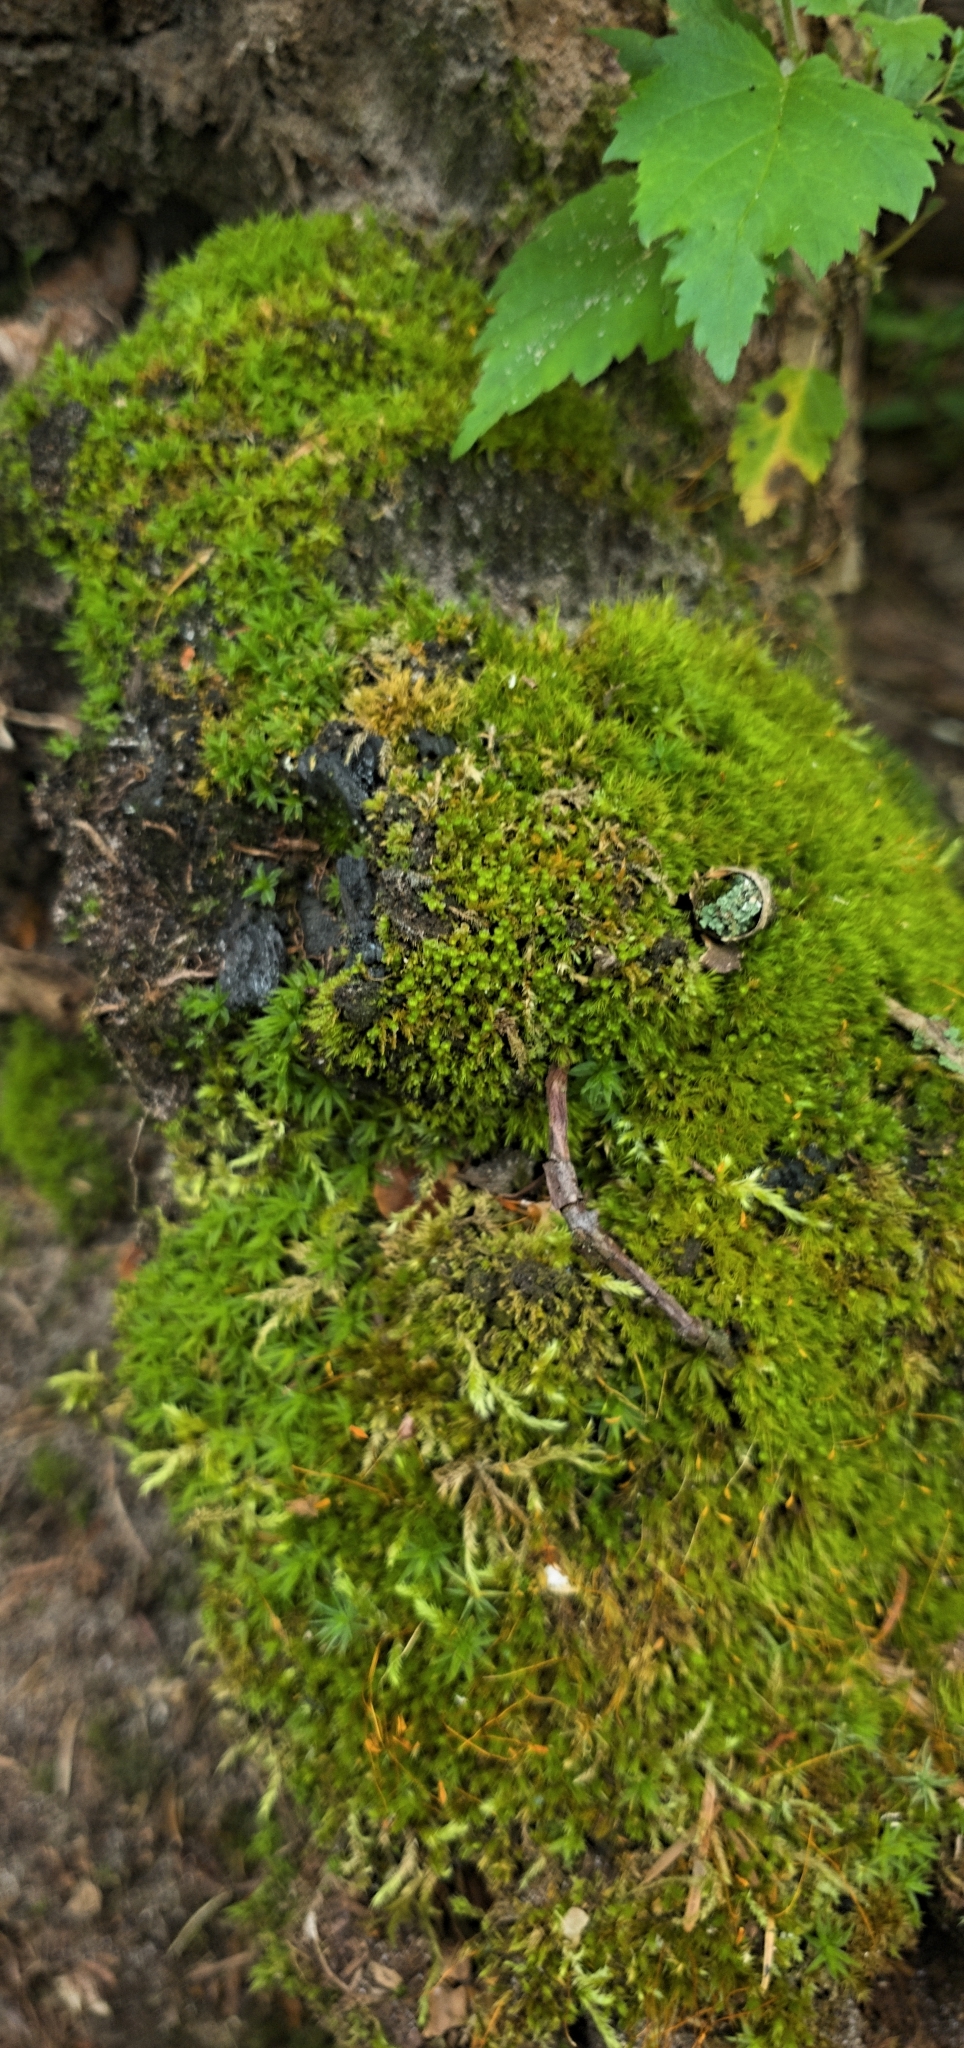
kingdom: Plantae
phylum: Bryophyta
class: Polytrichopsida
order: Tetraphidales
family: Tetraphidaceae
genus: Tetraphis
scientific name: Tetraphis pellucida
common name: Common four-toothed moss
